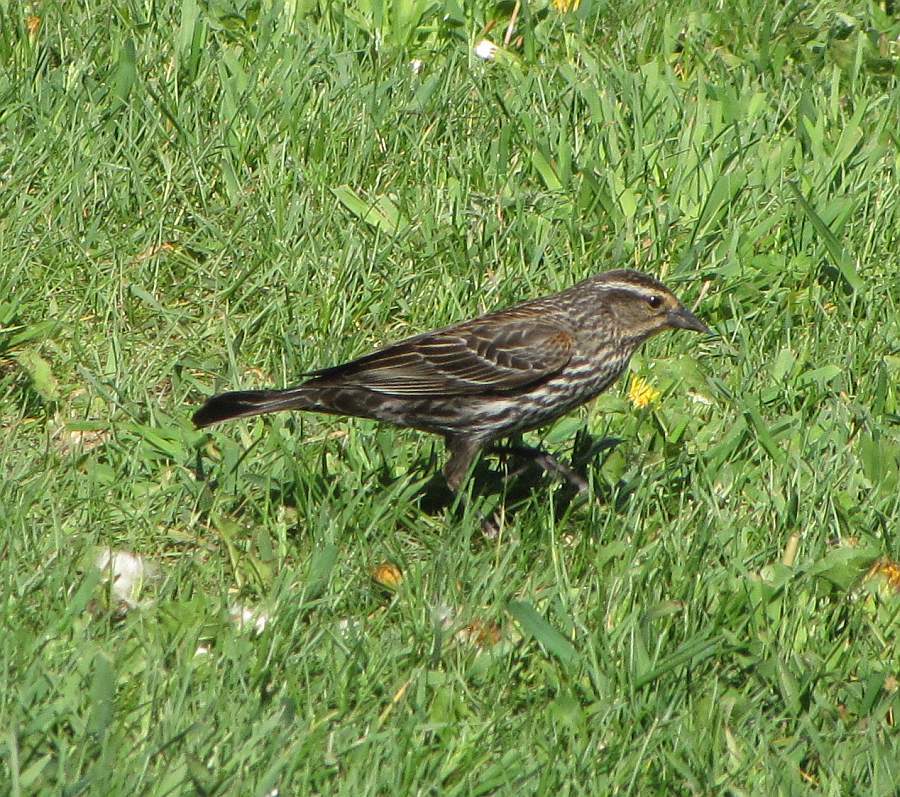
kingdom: Animalia
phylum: Chordata
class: Aves
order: Passeriformes
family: Icteridae
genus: Agelaius
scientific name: Agelaius phoeniceus
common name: Red-winged blackbird
